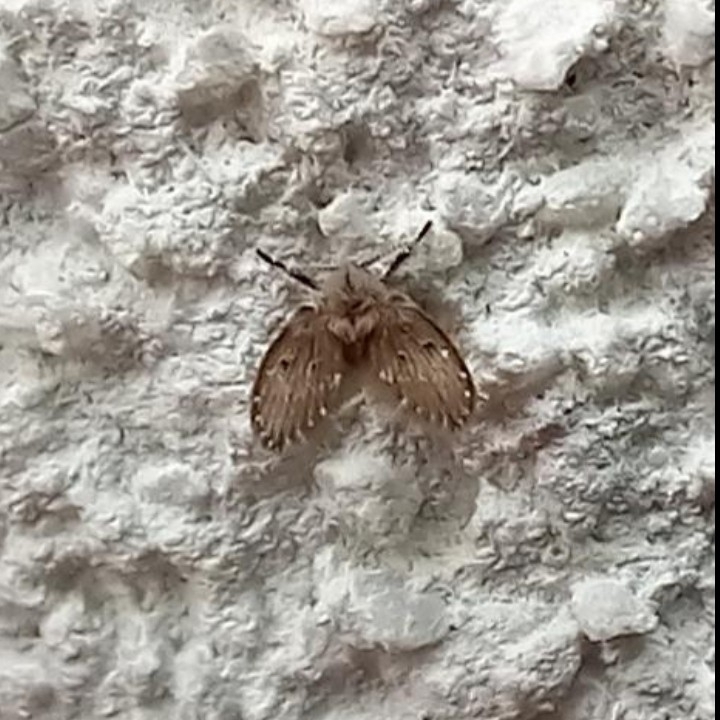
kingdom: Animalia
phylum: Arthropoda
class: Insecta
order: Diptera
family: Psychodidae
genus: Clogmia
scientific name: Clogmia albipunctatus
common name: White-spotted moth fly
